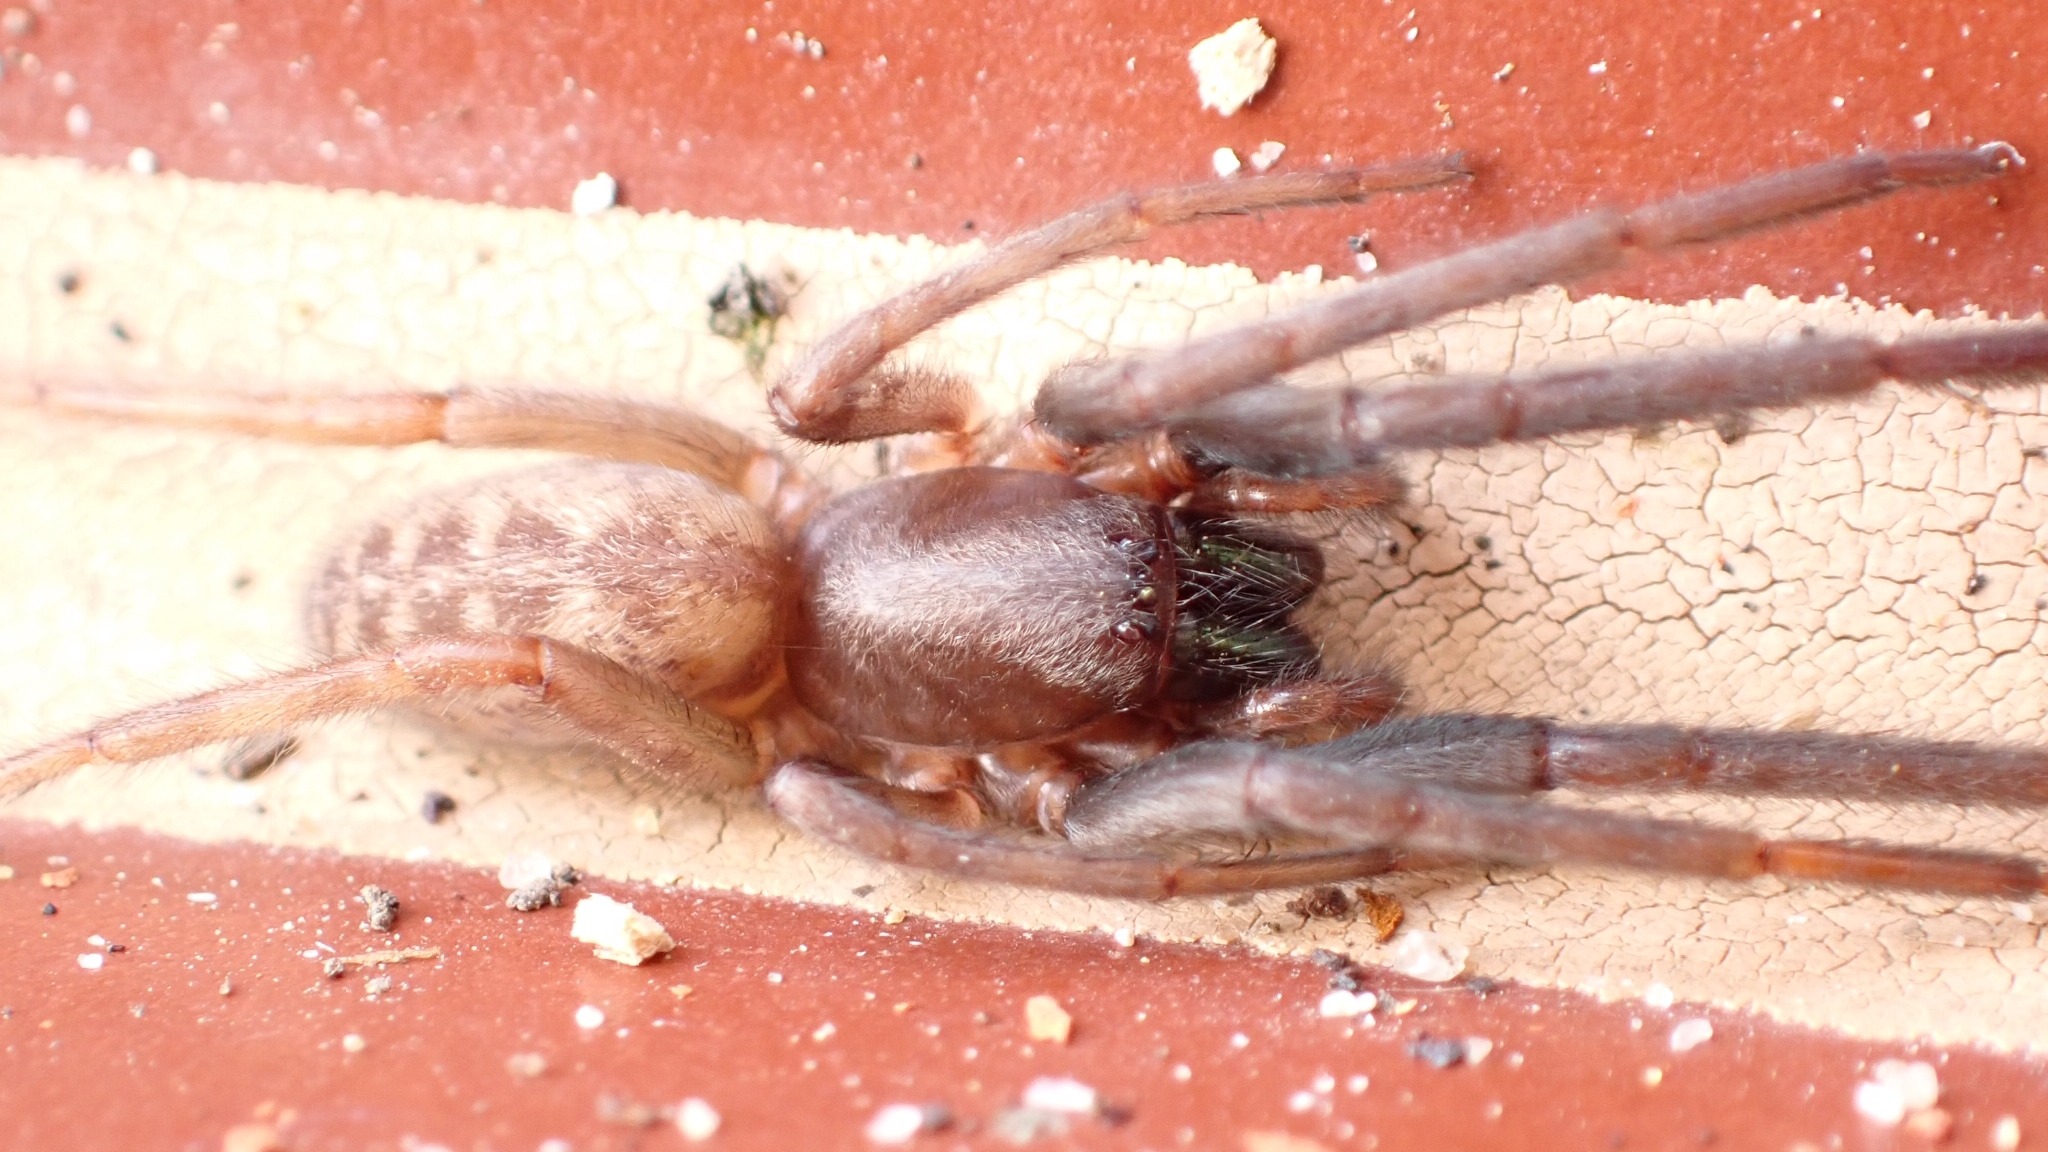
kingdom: Animalia
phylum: Arthropoda
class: Arachnida
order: Araneae
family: Segestriidae
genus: Segestria
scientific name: Segestria florentina
